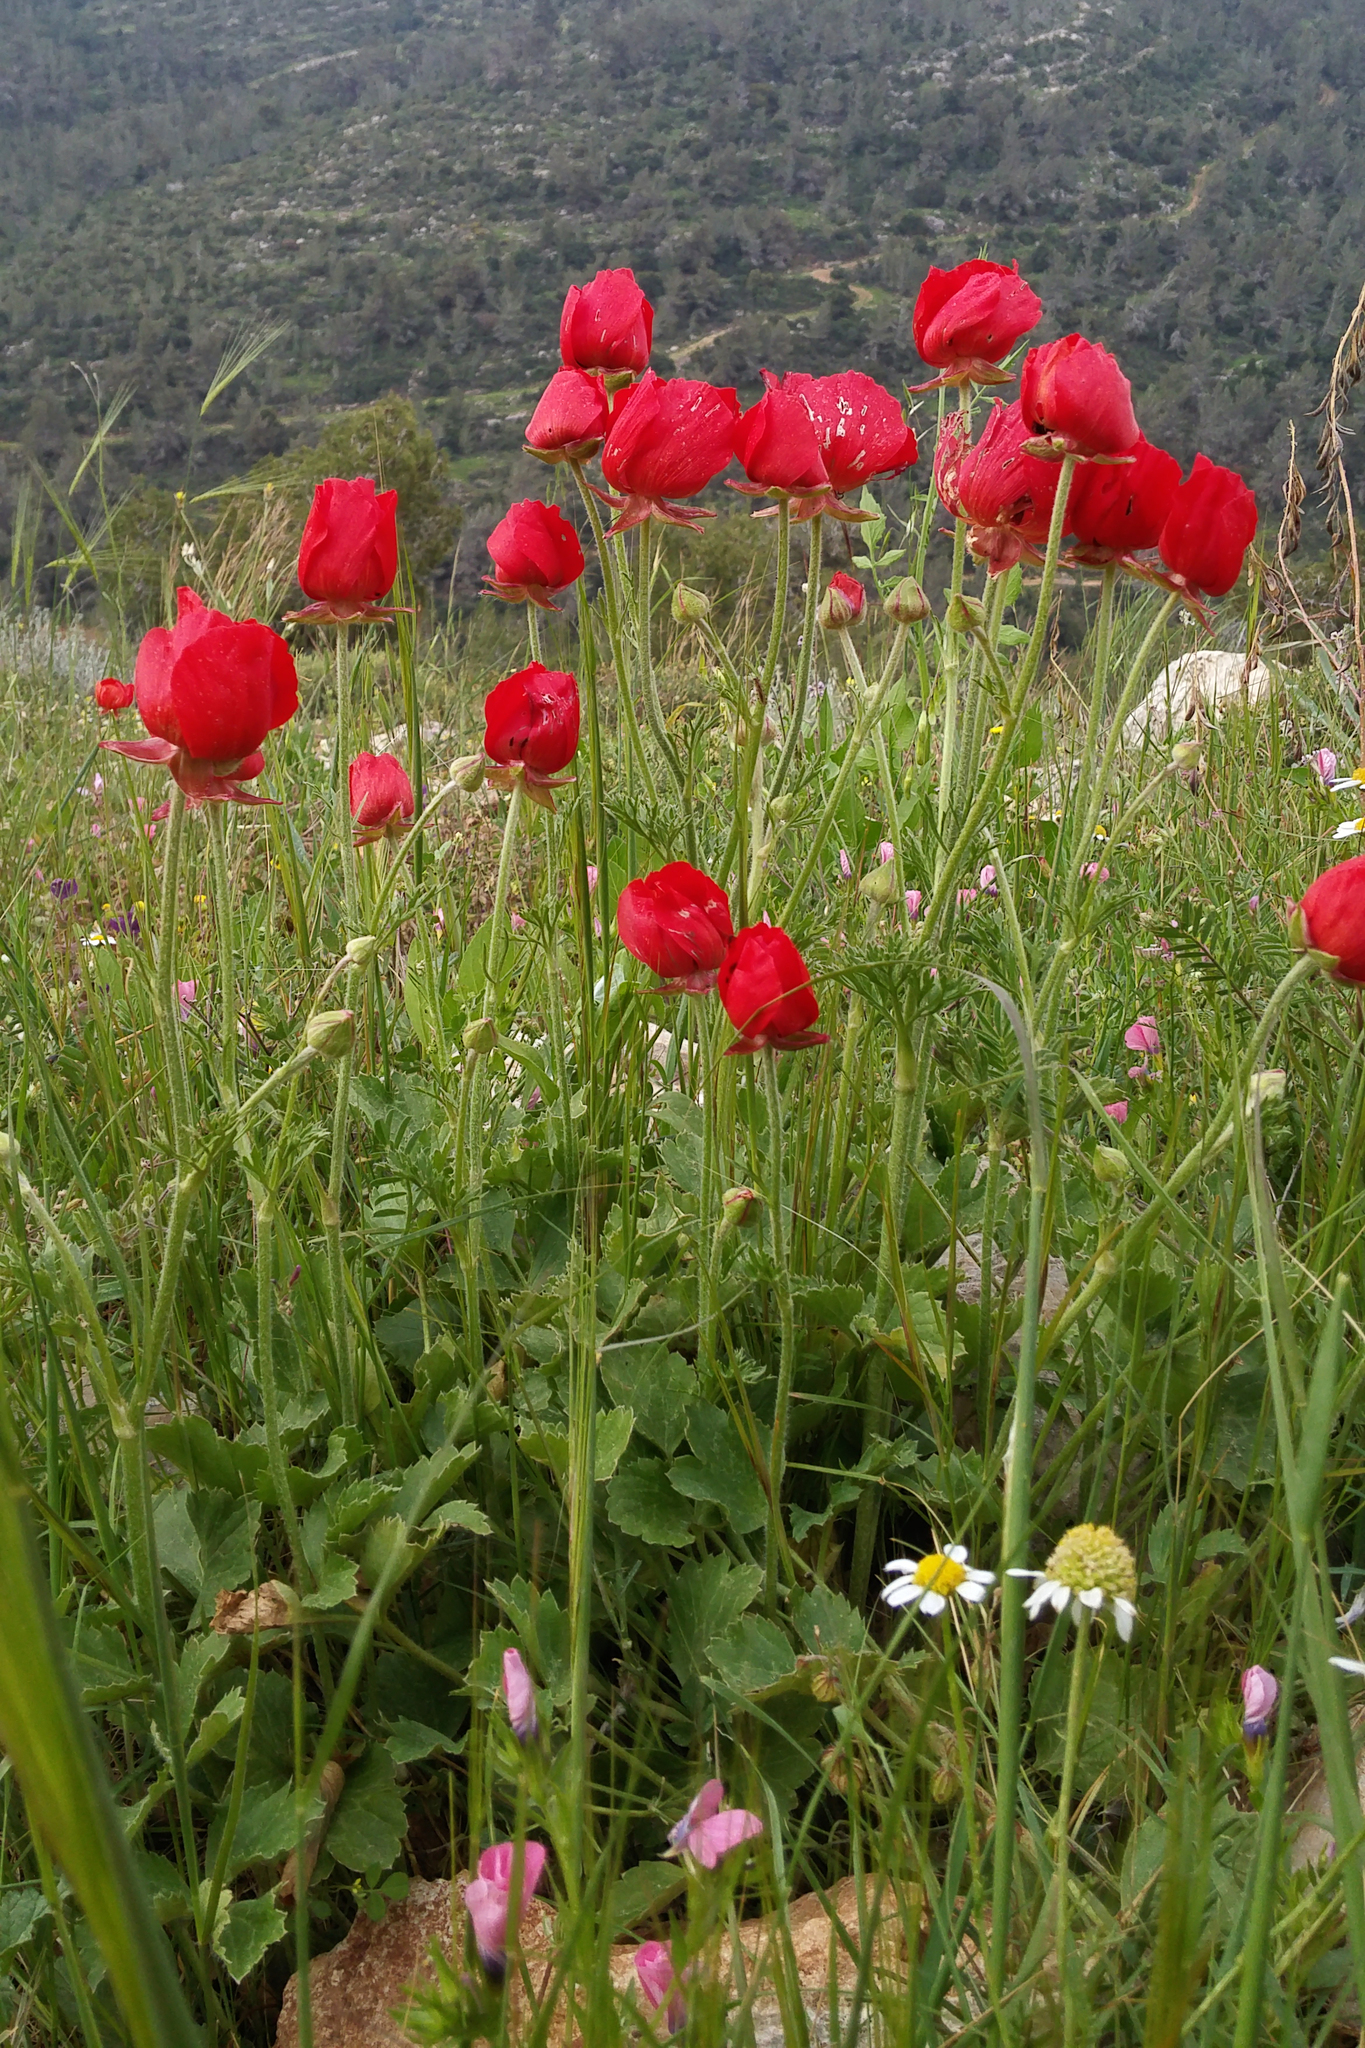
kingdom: Plantae
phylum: Tracheophyta
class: Magnoliopsida
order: Ranunculales
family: Ranunculaceae
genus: Ranunculus
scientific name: Ranunculus asiaticus
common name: Persian buttercup
